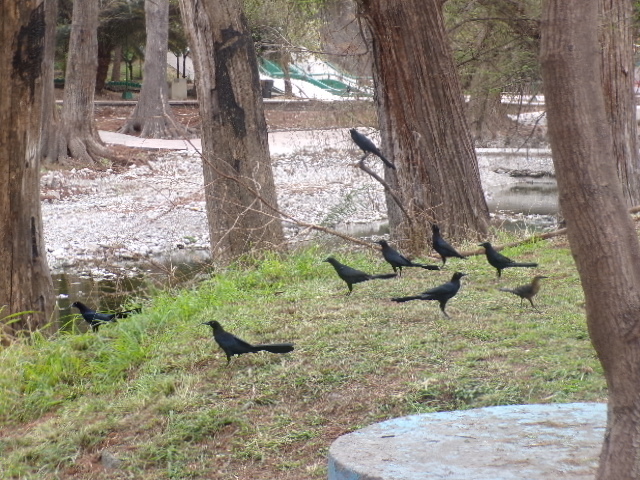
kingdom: Animalia
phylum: Chordata
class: Aves
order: Passeriformes
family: Icteridae
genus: Quiscalus
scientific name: Quiscalus mexicanus
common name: Great-tailed grackle
